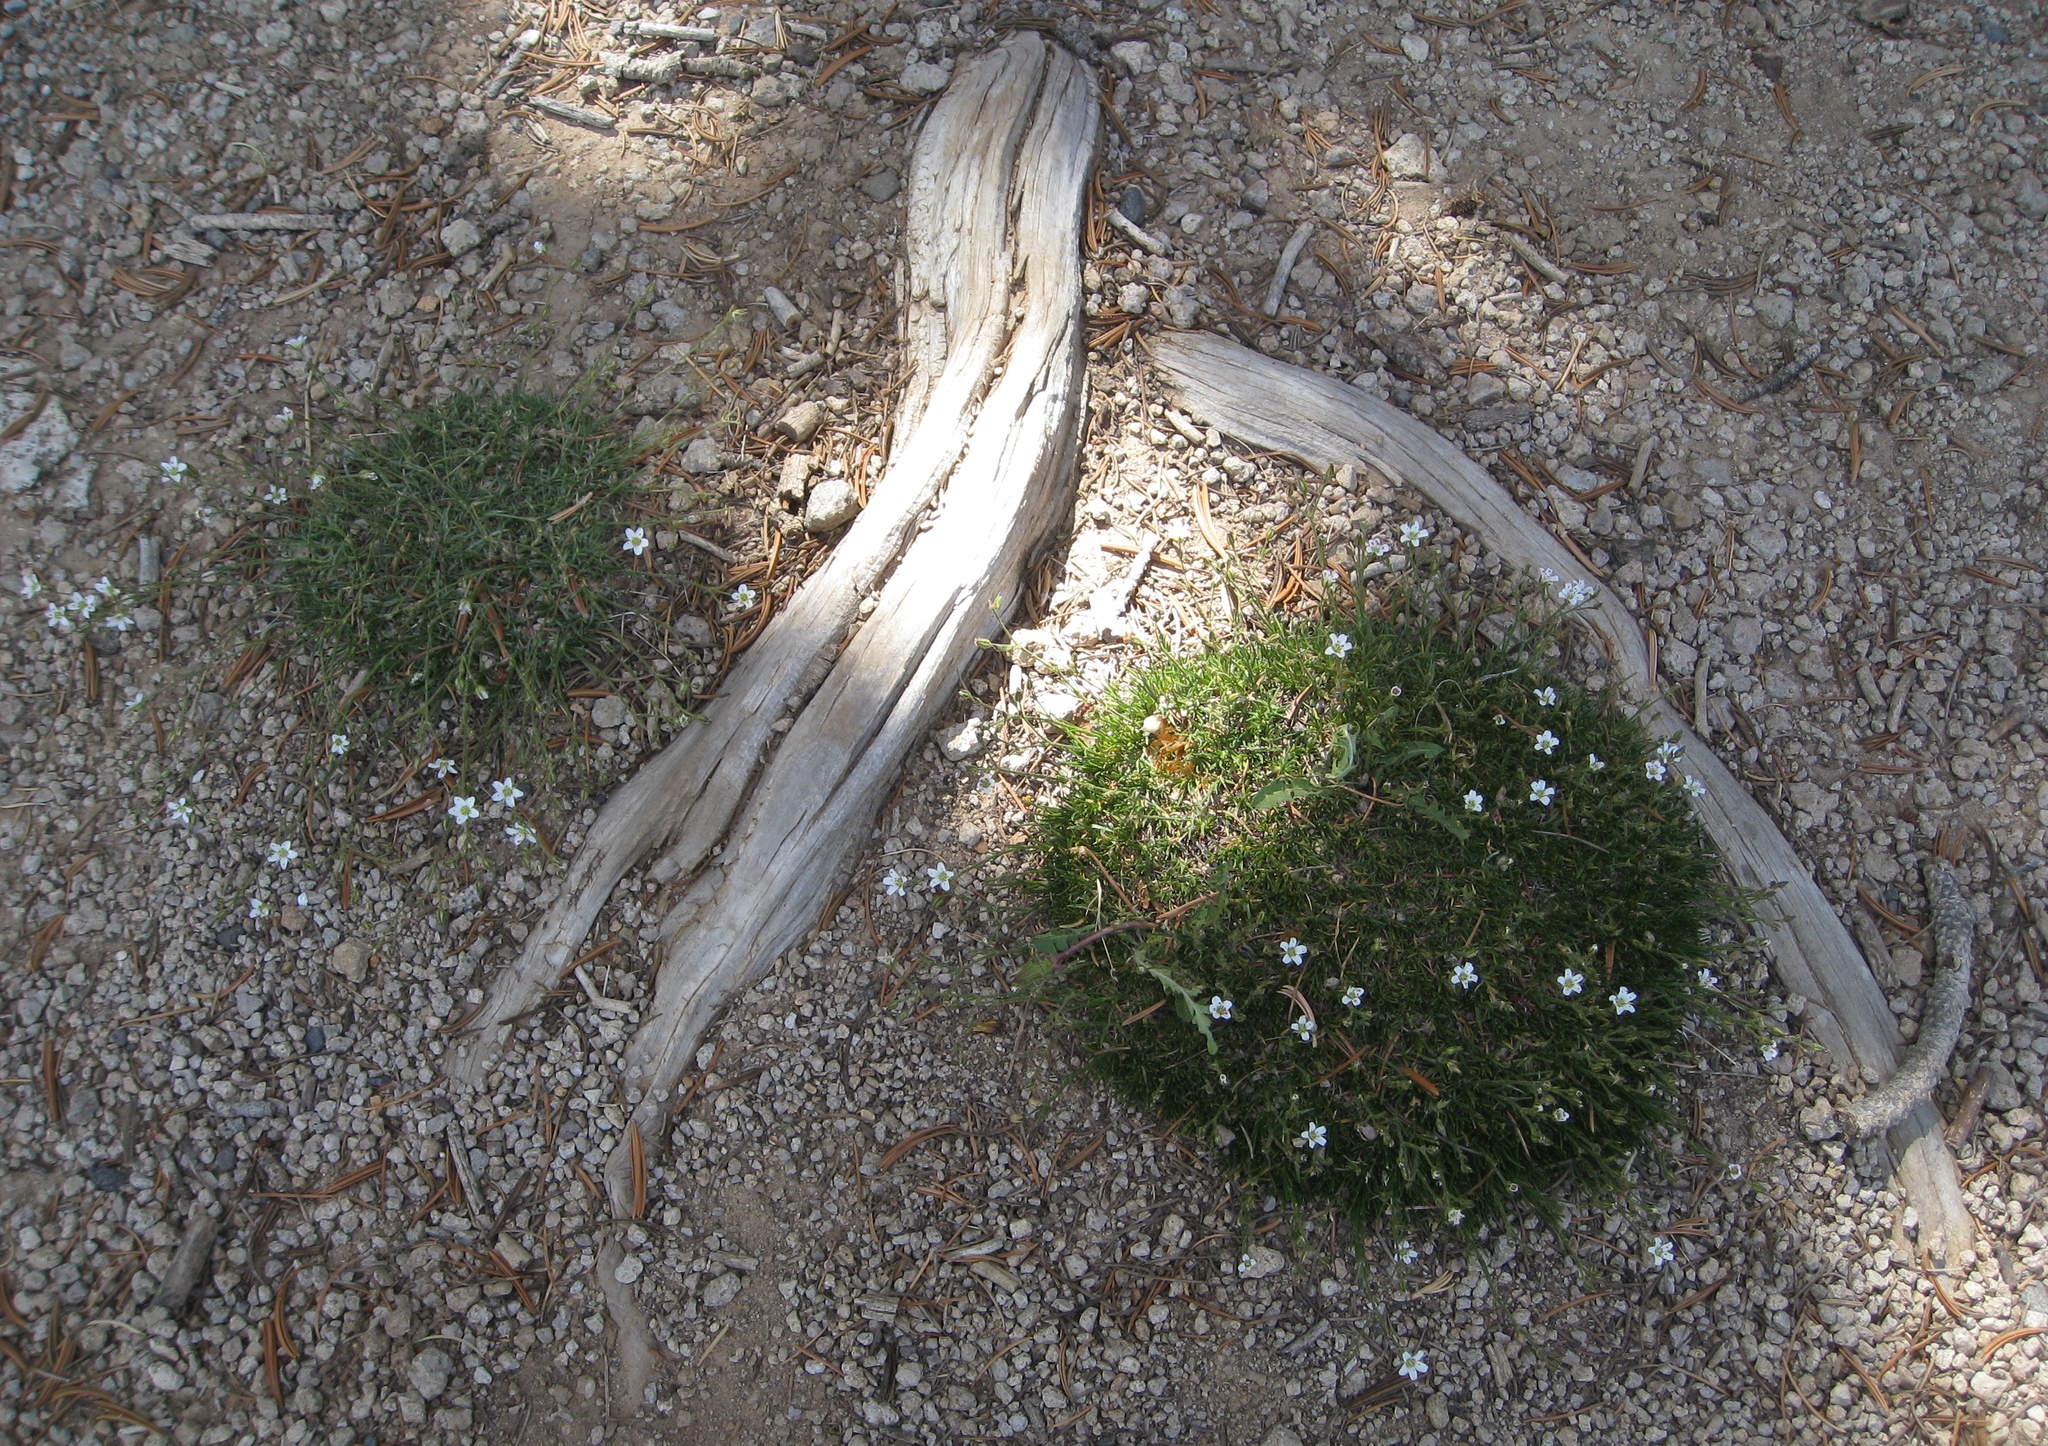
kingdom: Plantae
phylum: Tracheophyta
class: Magnoliopsida
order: Caryophyllales
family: Caryophyllaceae
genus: Eremogone
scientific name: Eremogone fendleri
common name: Fendler's sandwort
